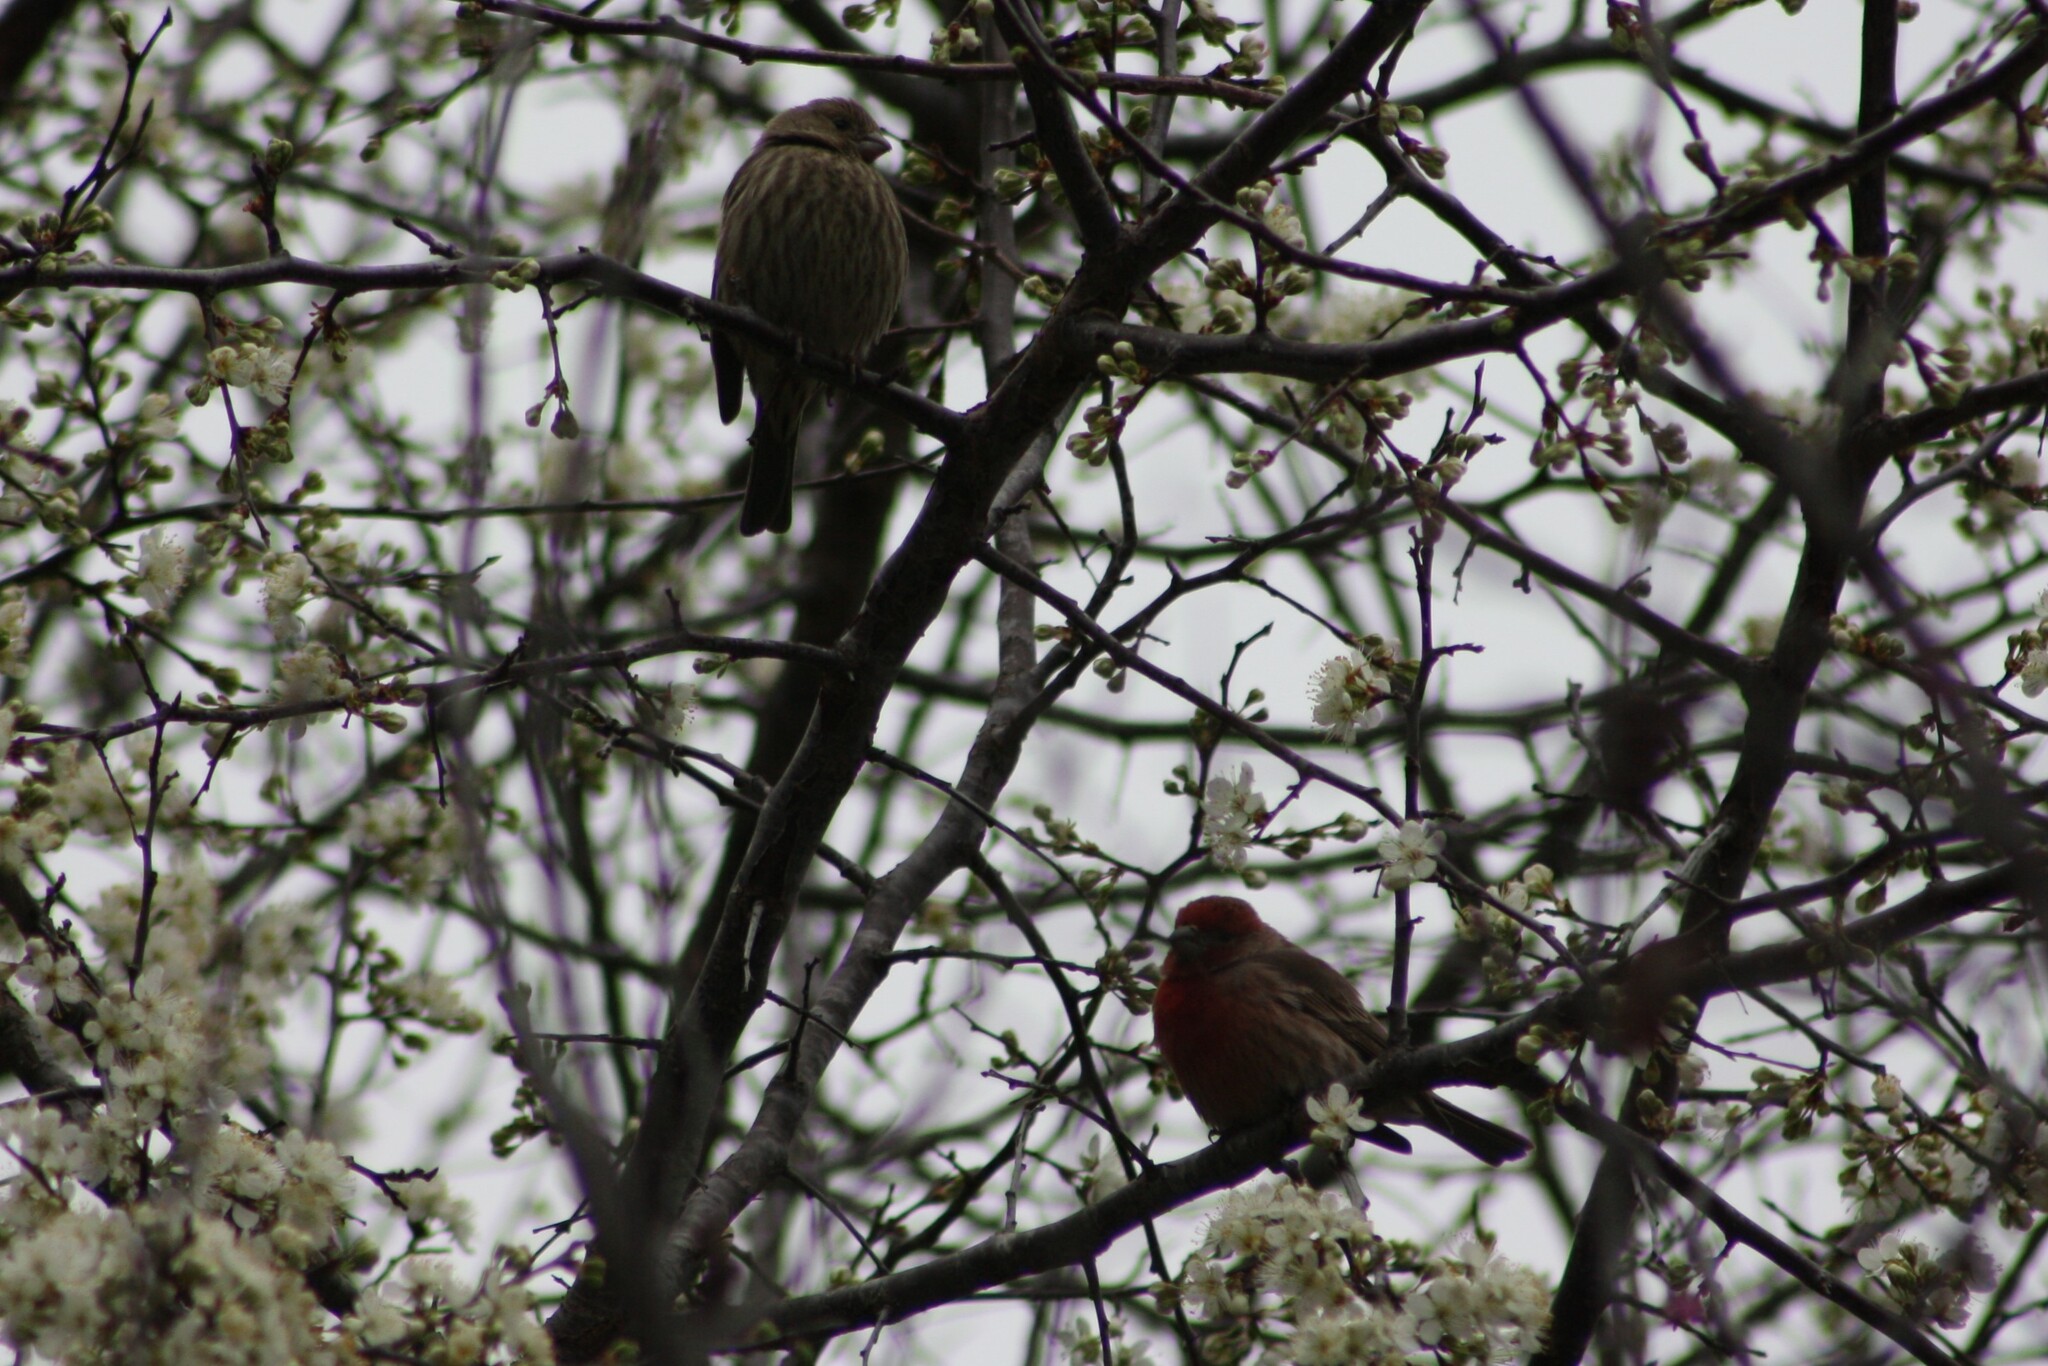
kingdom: Animalia
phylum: Chordata
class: Aves
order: Passeriformes
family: Fringillidae
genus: Haemorhous
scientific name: Haemorhous mexicanus
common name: House finch
